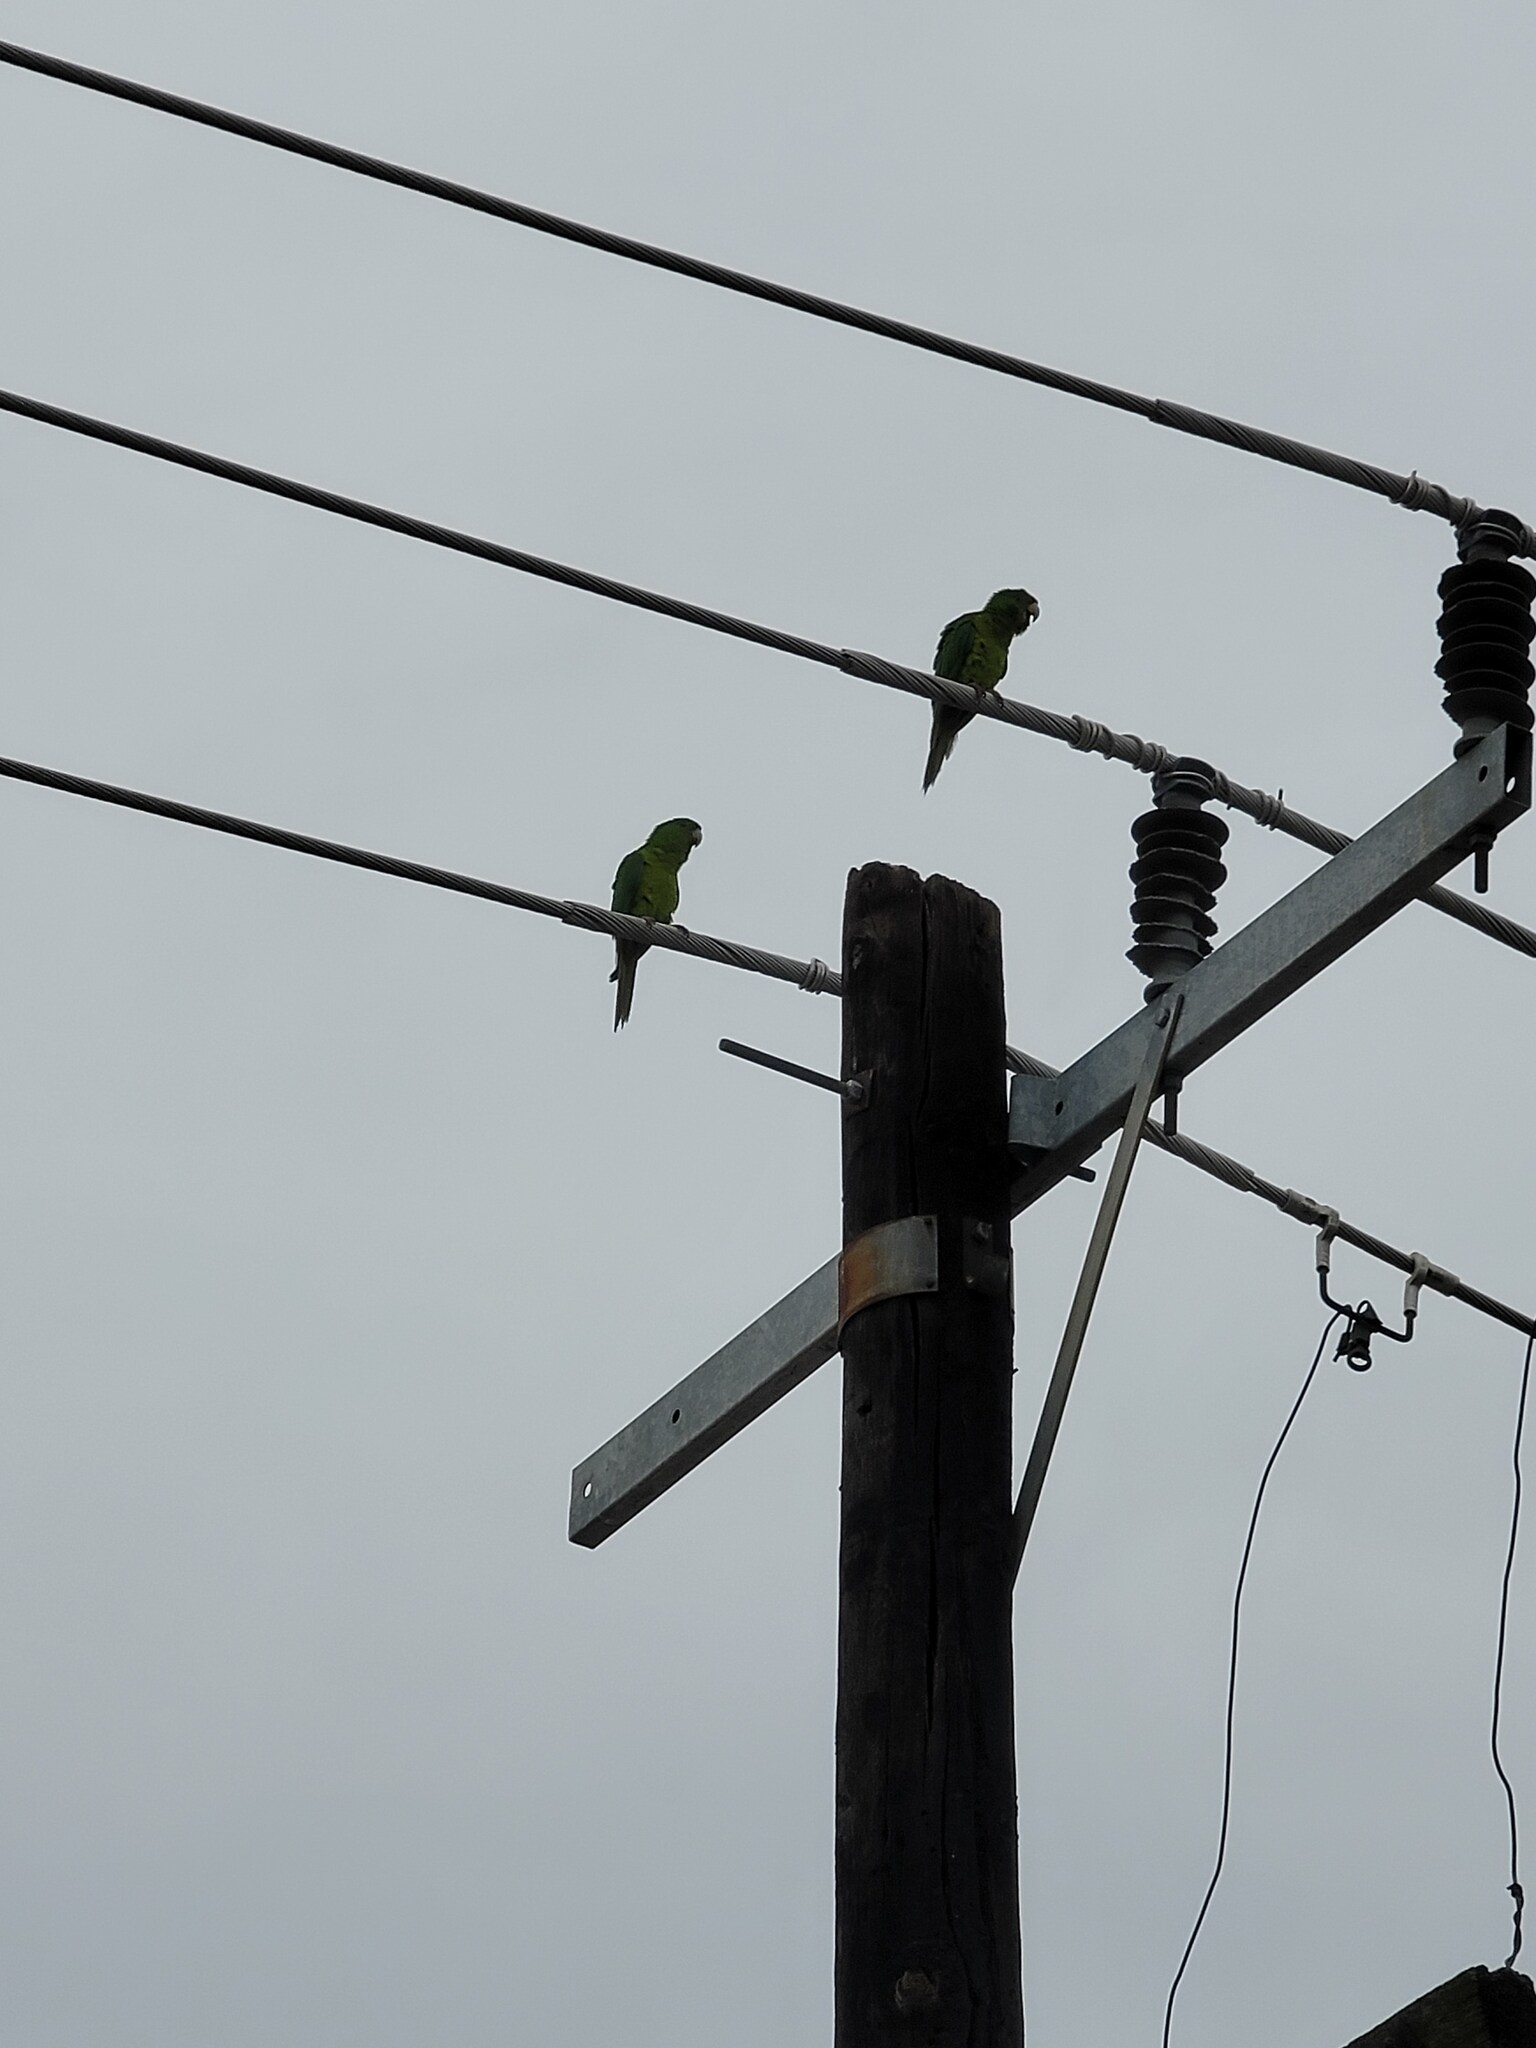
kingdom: Animalia
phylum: Chordata
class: Aves
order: Psittaciformes
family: Psittacidae
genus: Aratinga
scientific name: Aratinga holochlora
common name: Green parakeet
